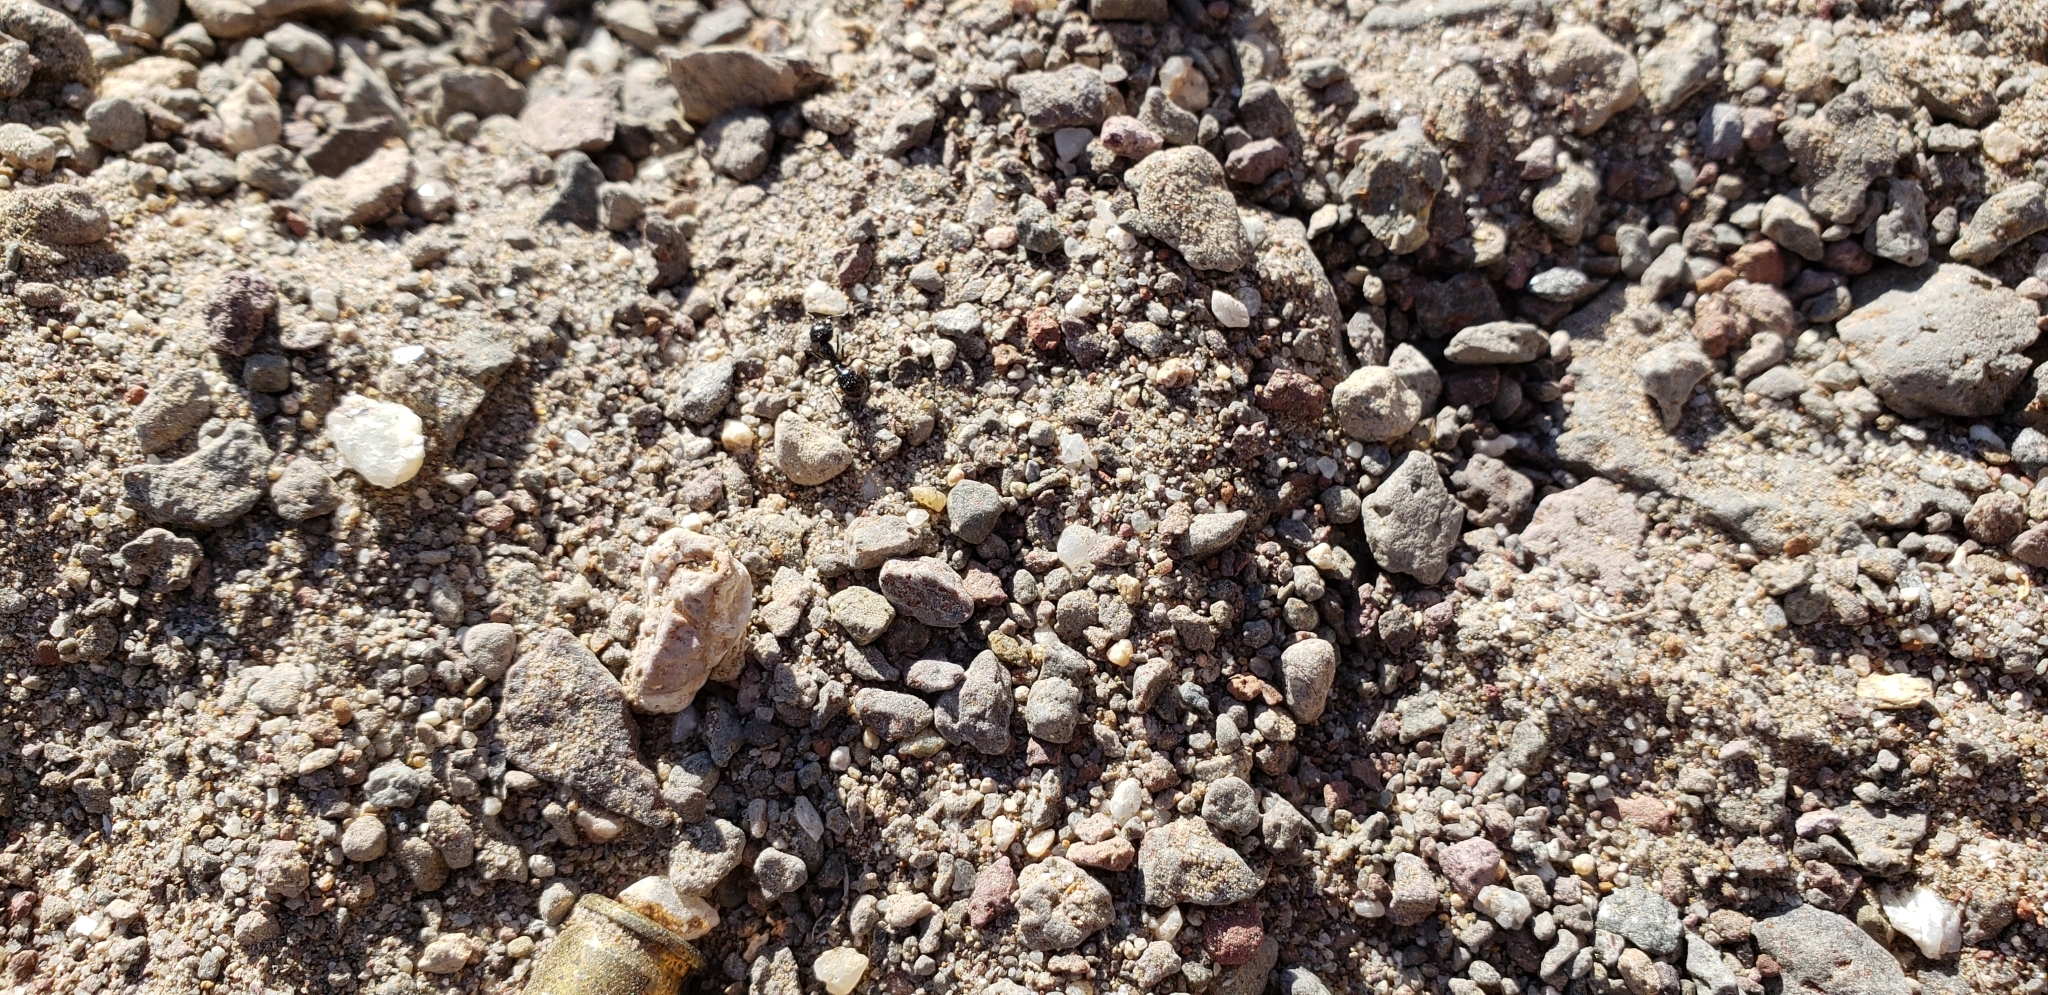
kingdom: Animalia
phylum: Arthropoda
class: Insecta
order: Hymenoptera
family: Formicidae
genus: Messor
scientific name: Messor pergandei
